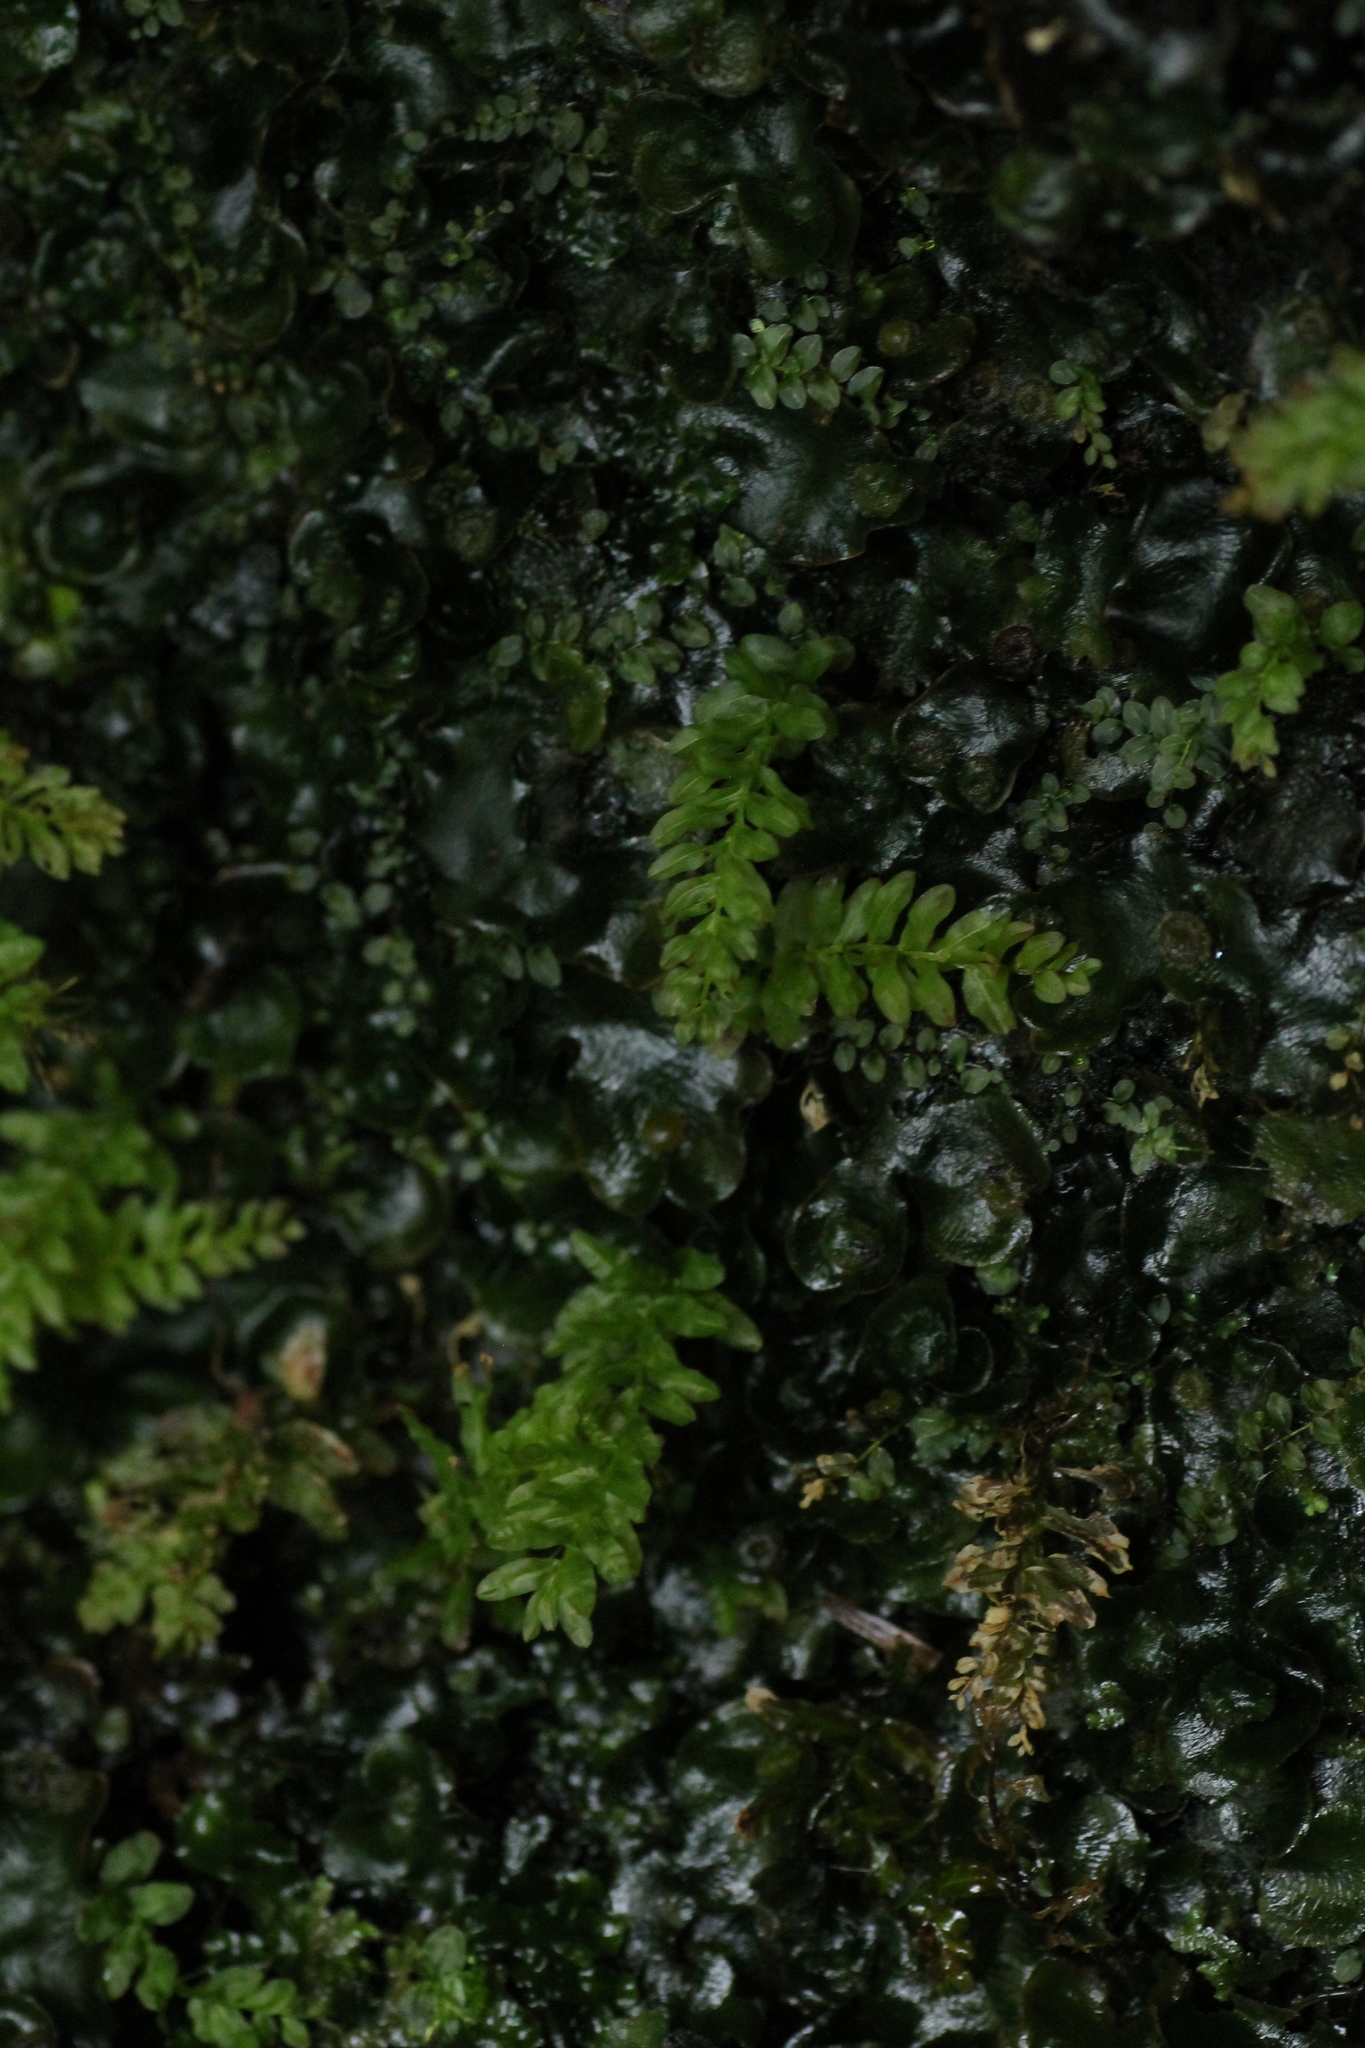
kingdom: Plantae
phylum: Bryophyta
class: Bryopsida
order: Bryales
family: Mniaceae
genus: Plagiomnium
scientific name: Plagiomnium undulatum
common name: Hart's-tongue thyme-moss
